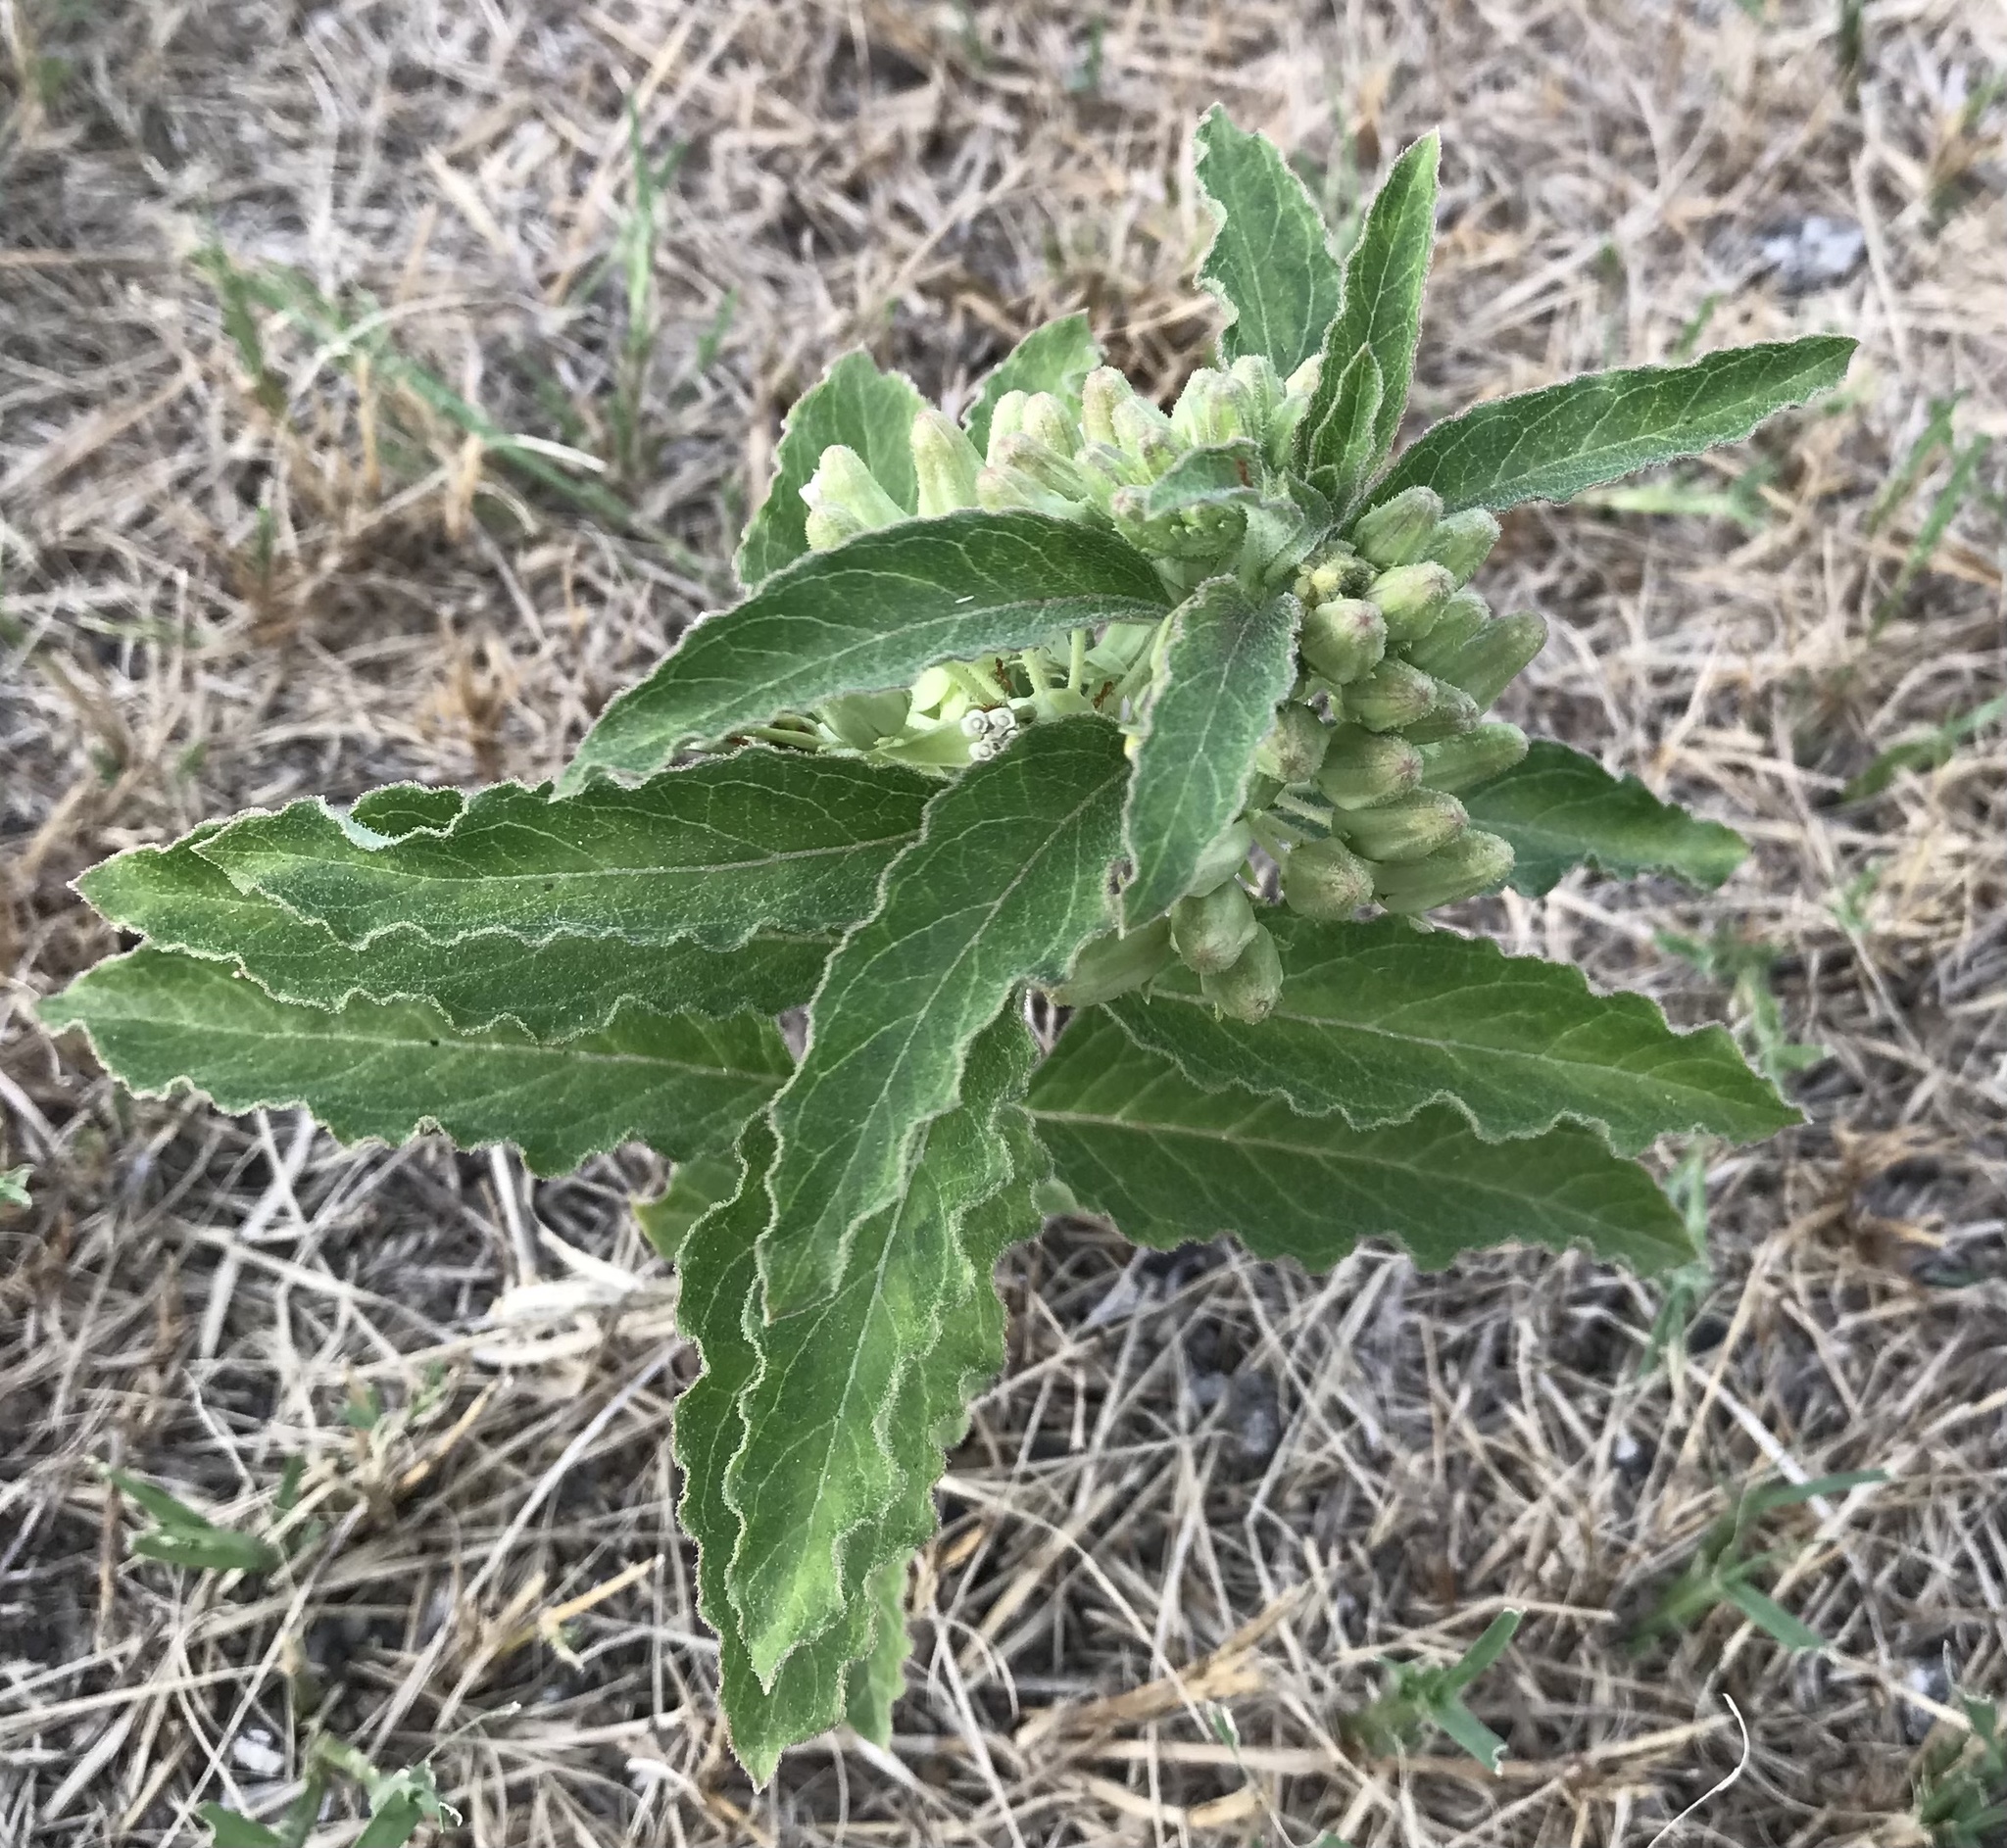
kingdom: Plantae
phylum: Tracheophyta
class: Magnoliopsida
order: Gentianales
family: Apocynaceae
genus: Asclepias
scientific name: Asclepias oenotheroides
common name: Zizotes milkweed
